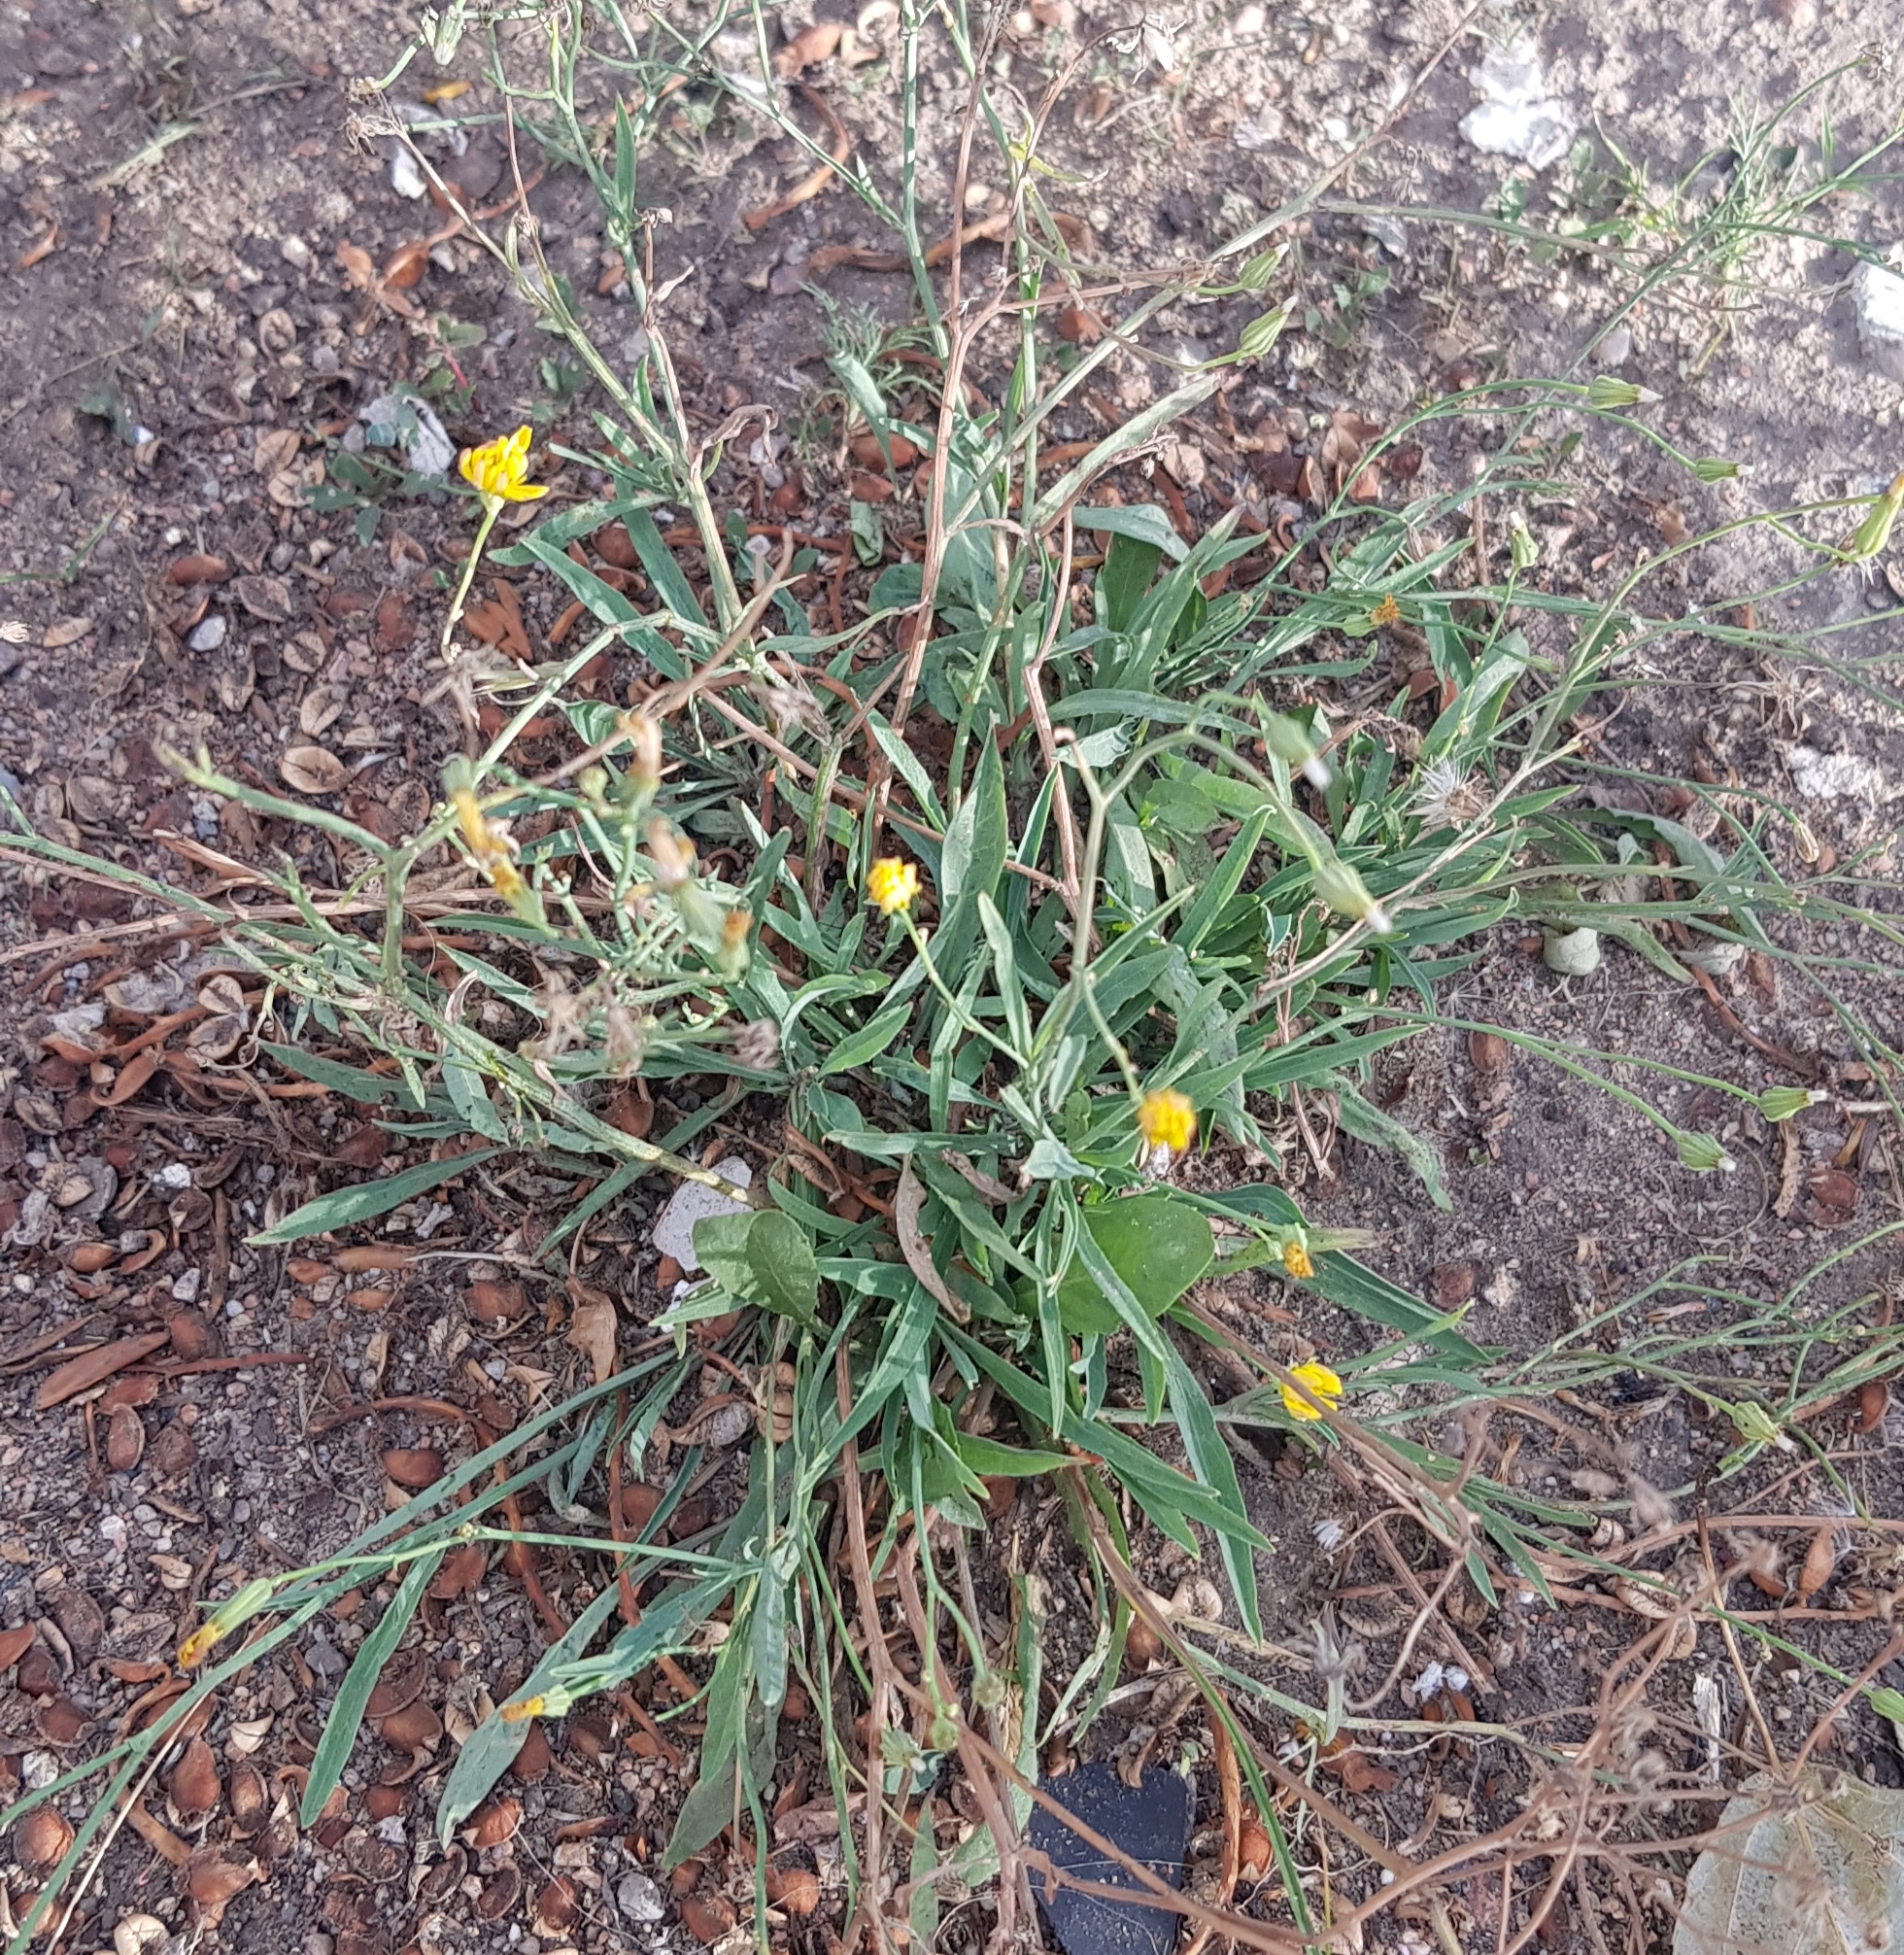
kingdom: Plantae
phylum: Tracheophyta
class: Magnoliopsida
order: Asterales
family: Asteraceae
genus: Ixeris
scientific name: Ixeris chinensis
